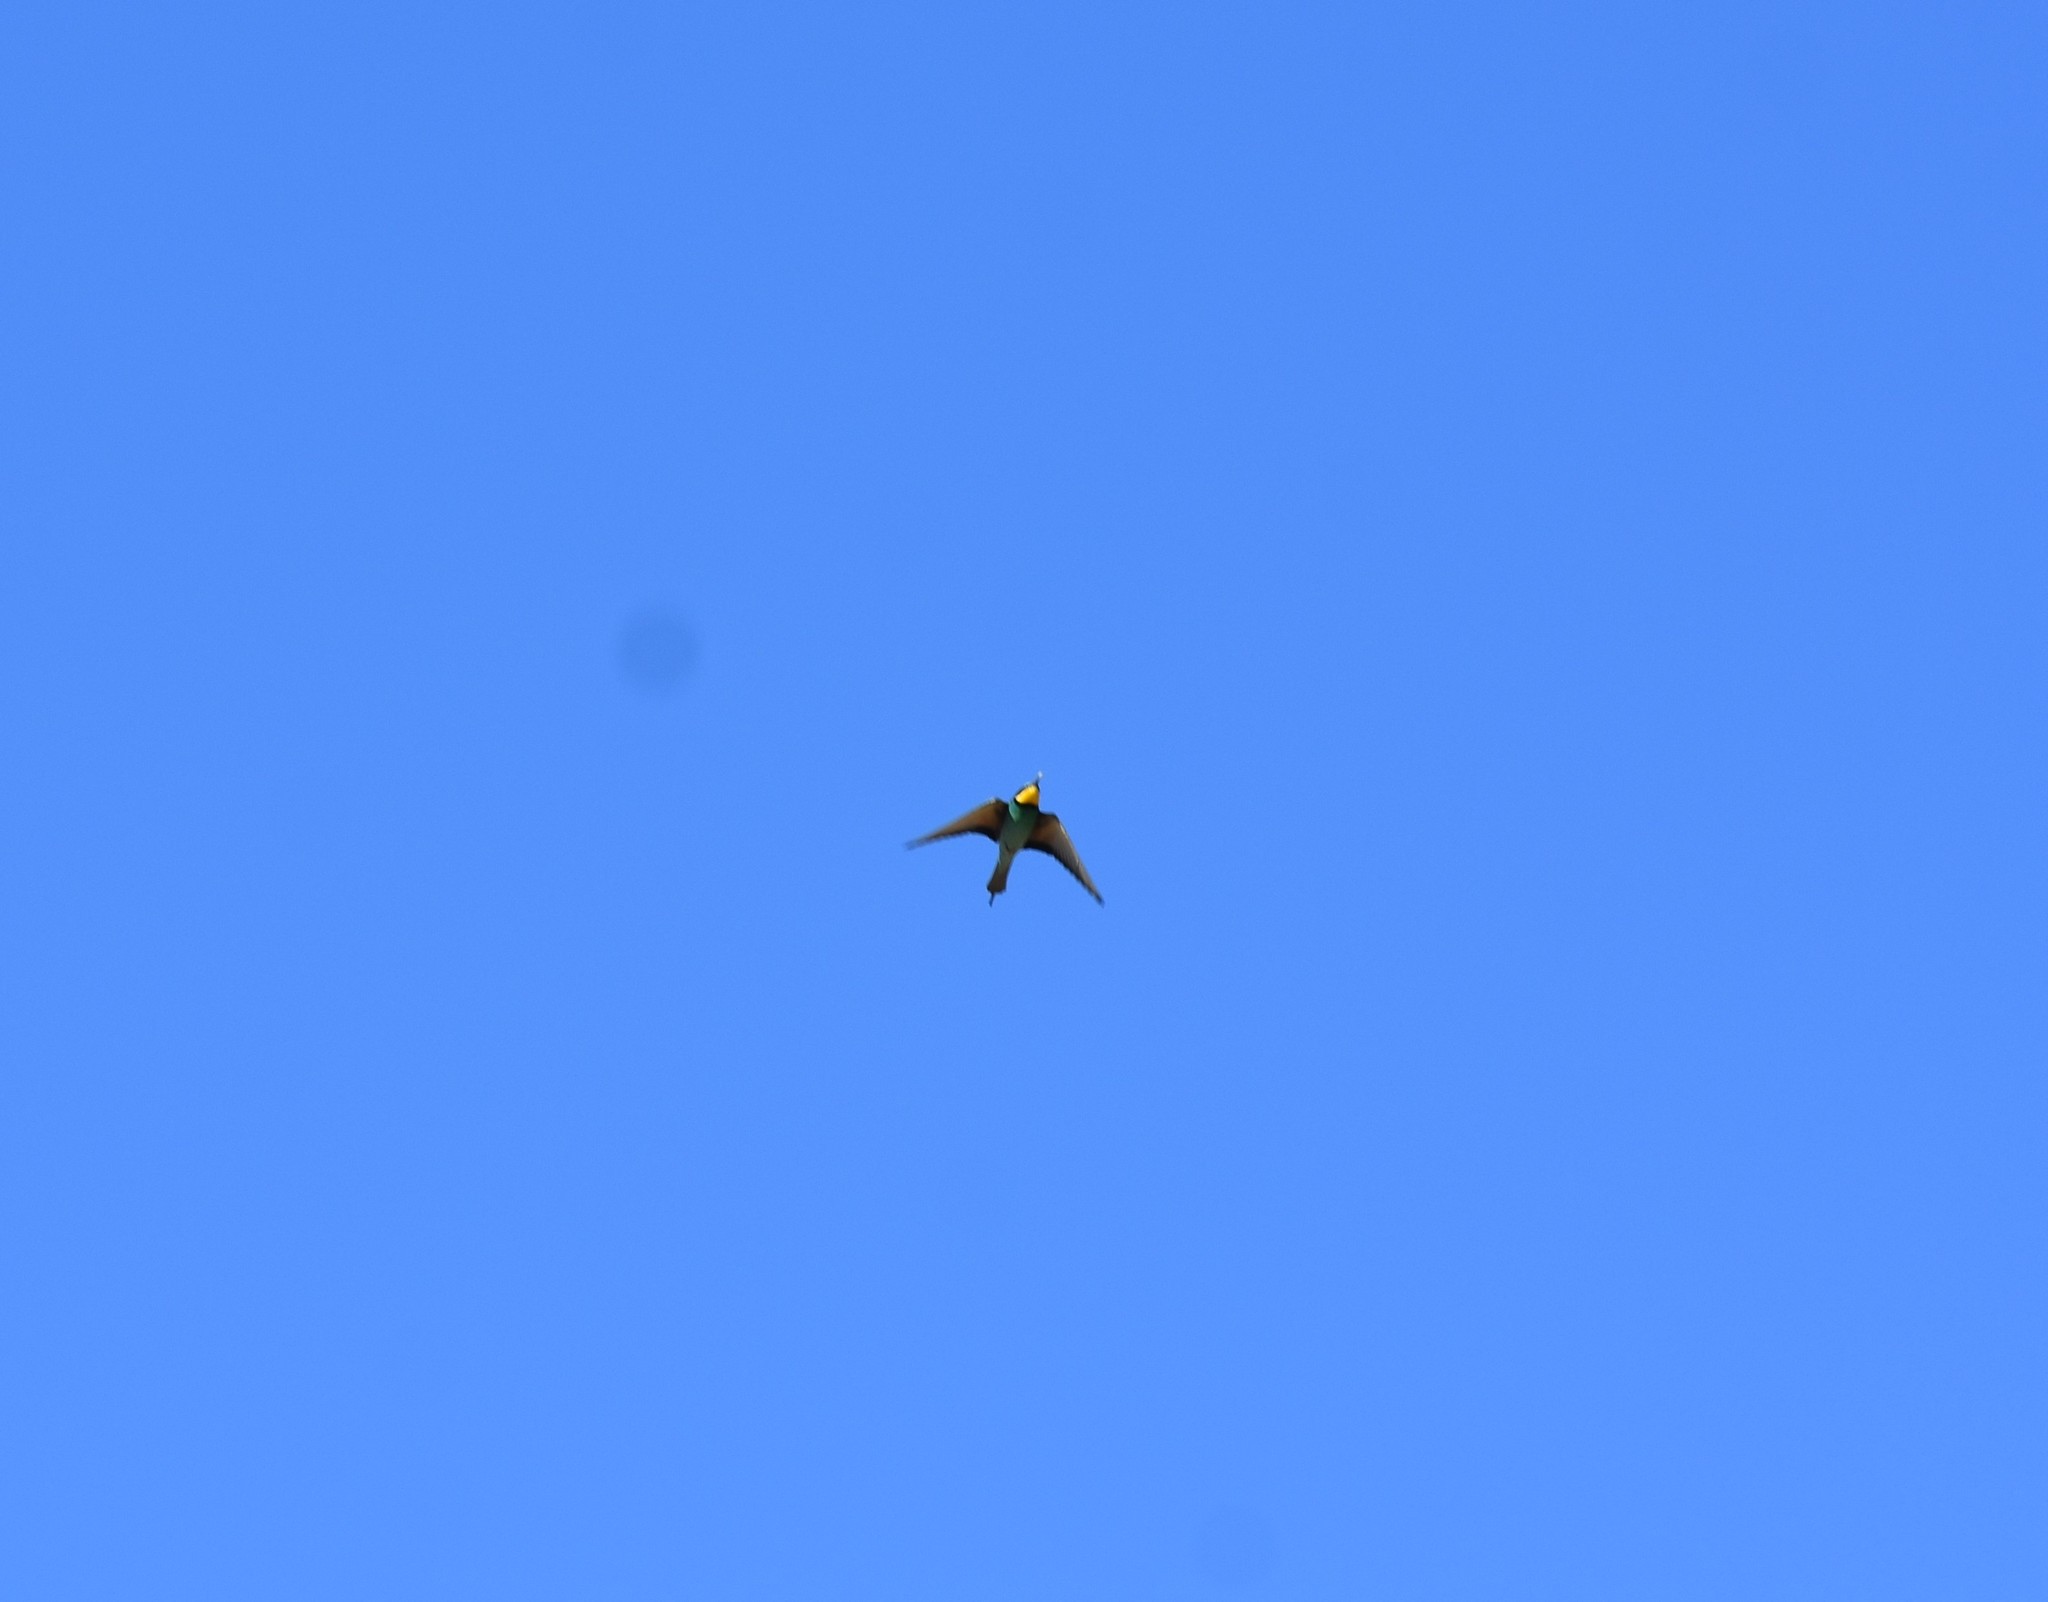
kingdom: Animalia
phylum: Chordata
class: Aves
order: Coraciiformes
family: Meropidae
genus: Merops
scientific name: Merops apiaster
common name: European bee-eater
